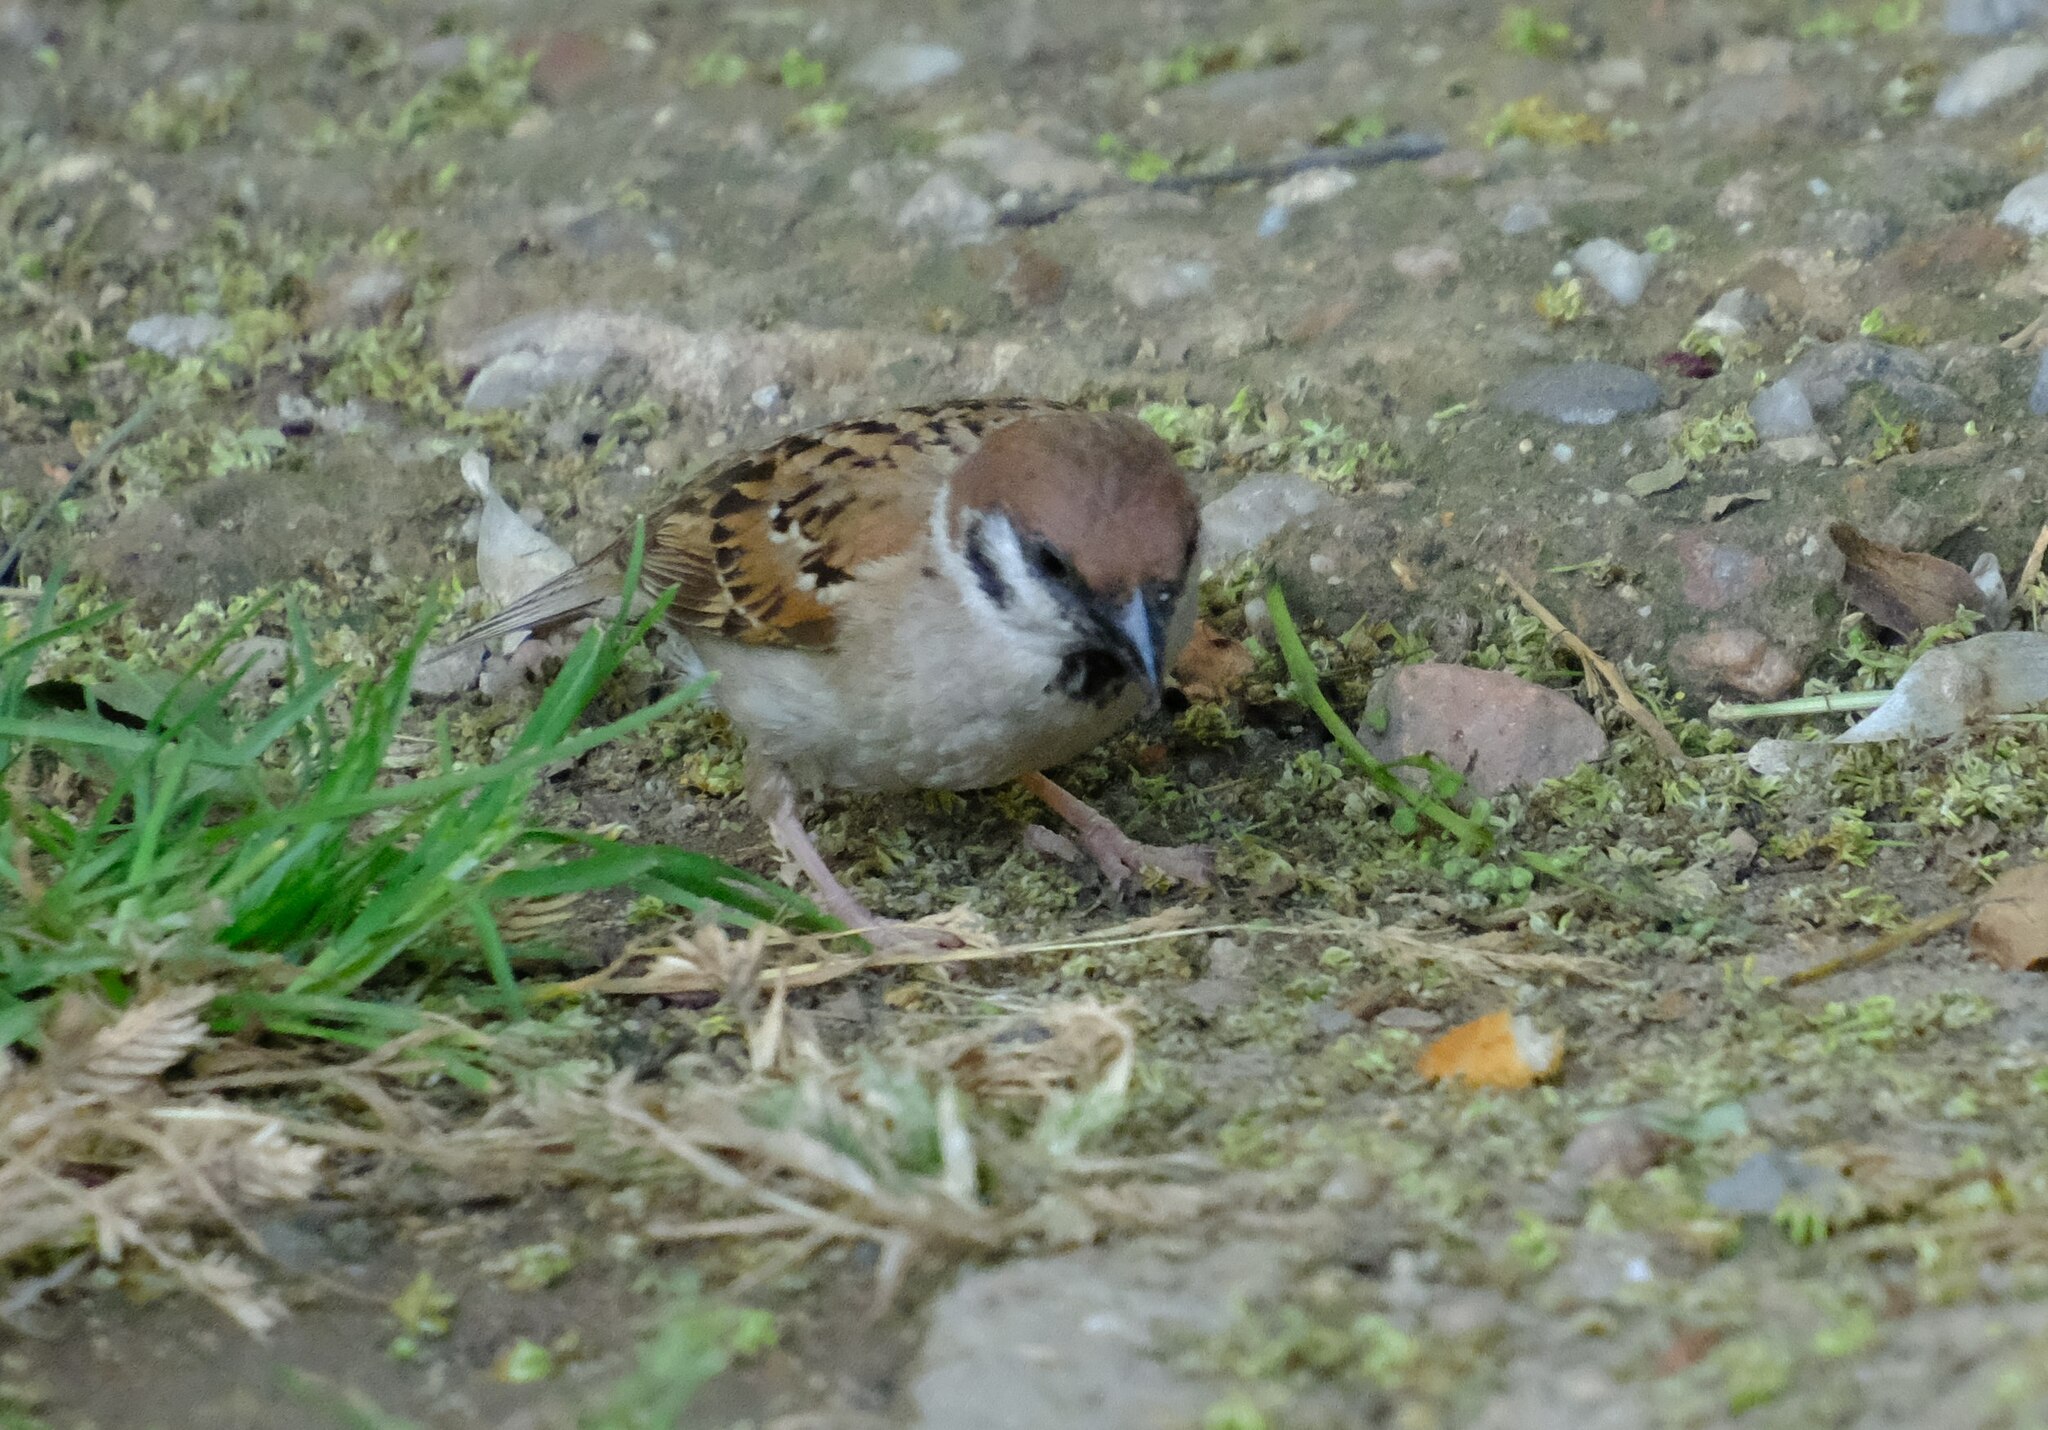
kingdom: Animalia
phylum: Chordata
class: Aves
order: Passeriformes
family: Passeridae
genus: Passer
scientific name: Passer montanus
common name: Eurasian tree sparrow
